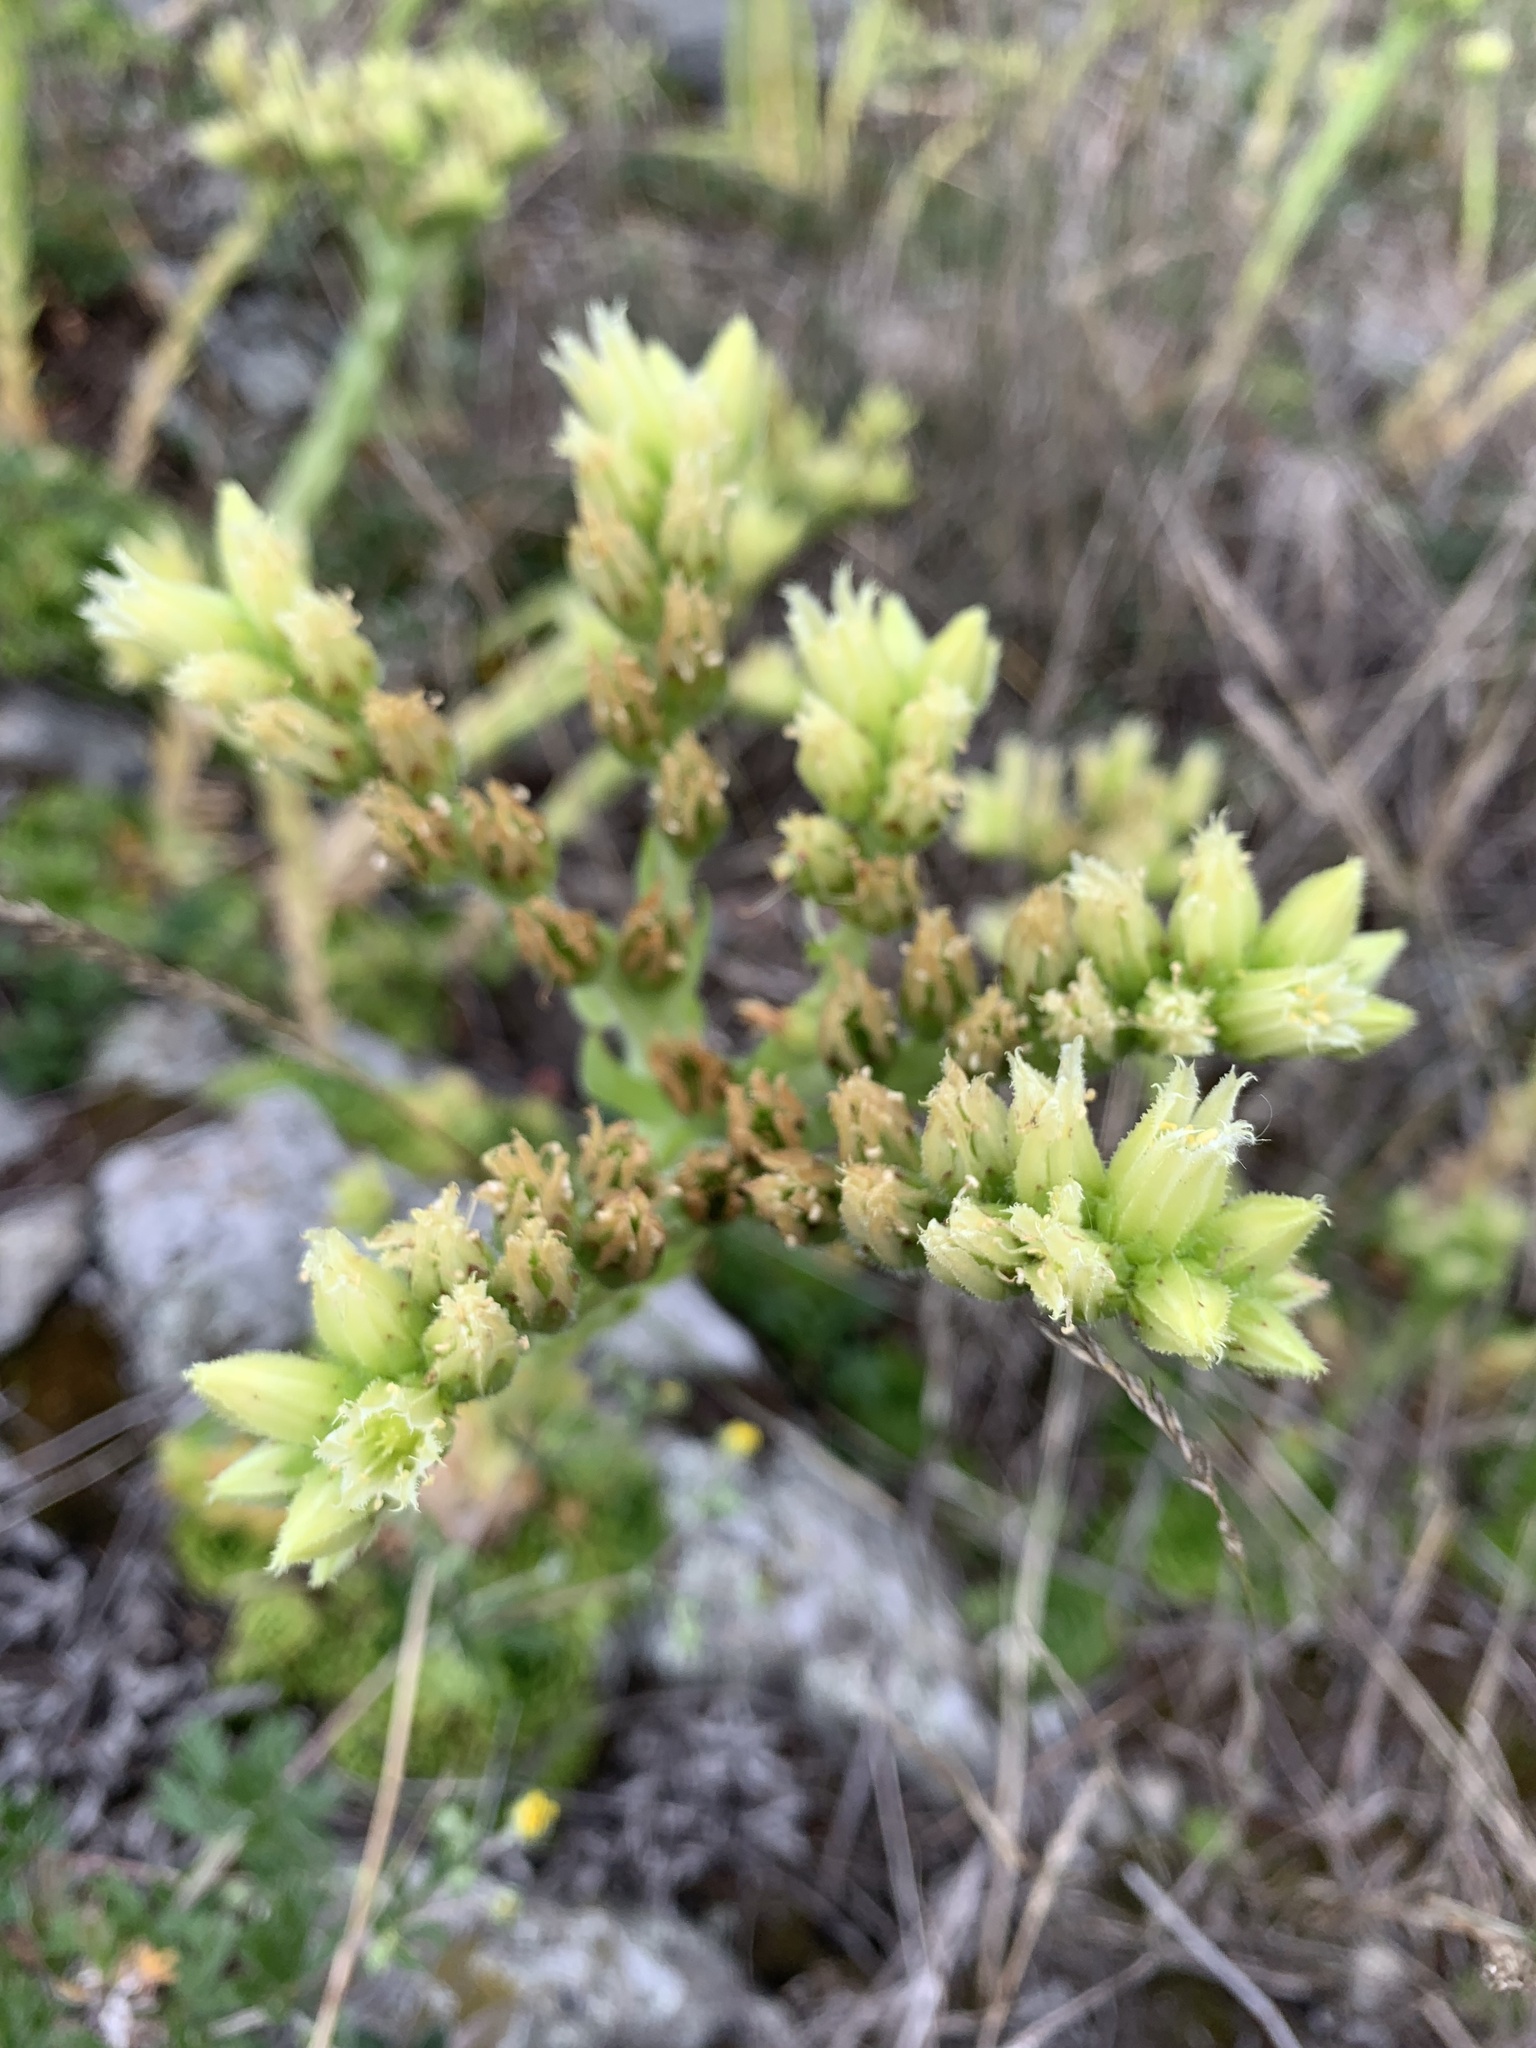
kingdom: Plantae
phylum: Tracheophyta
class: Magnoliopsida
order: Saxifragales
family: Crassulaceae
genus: Sempervivum
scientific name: Sempervivum globiferum
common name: Rolling hen-and-chicks
